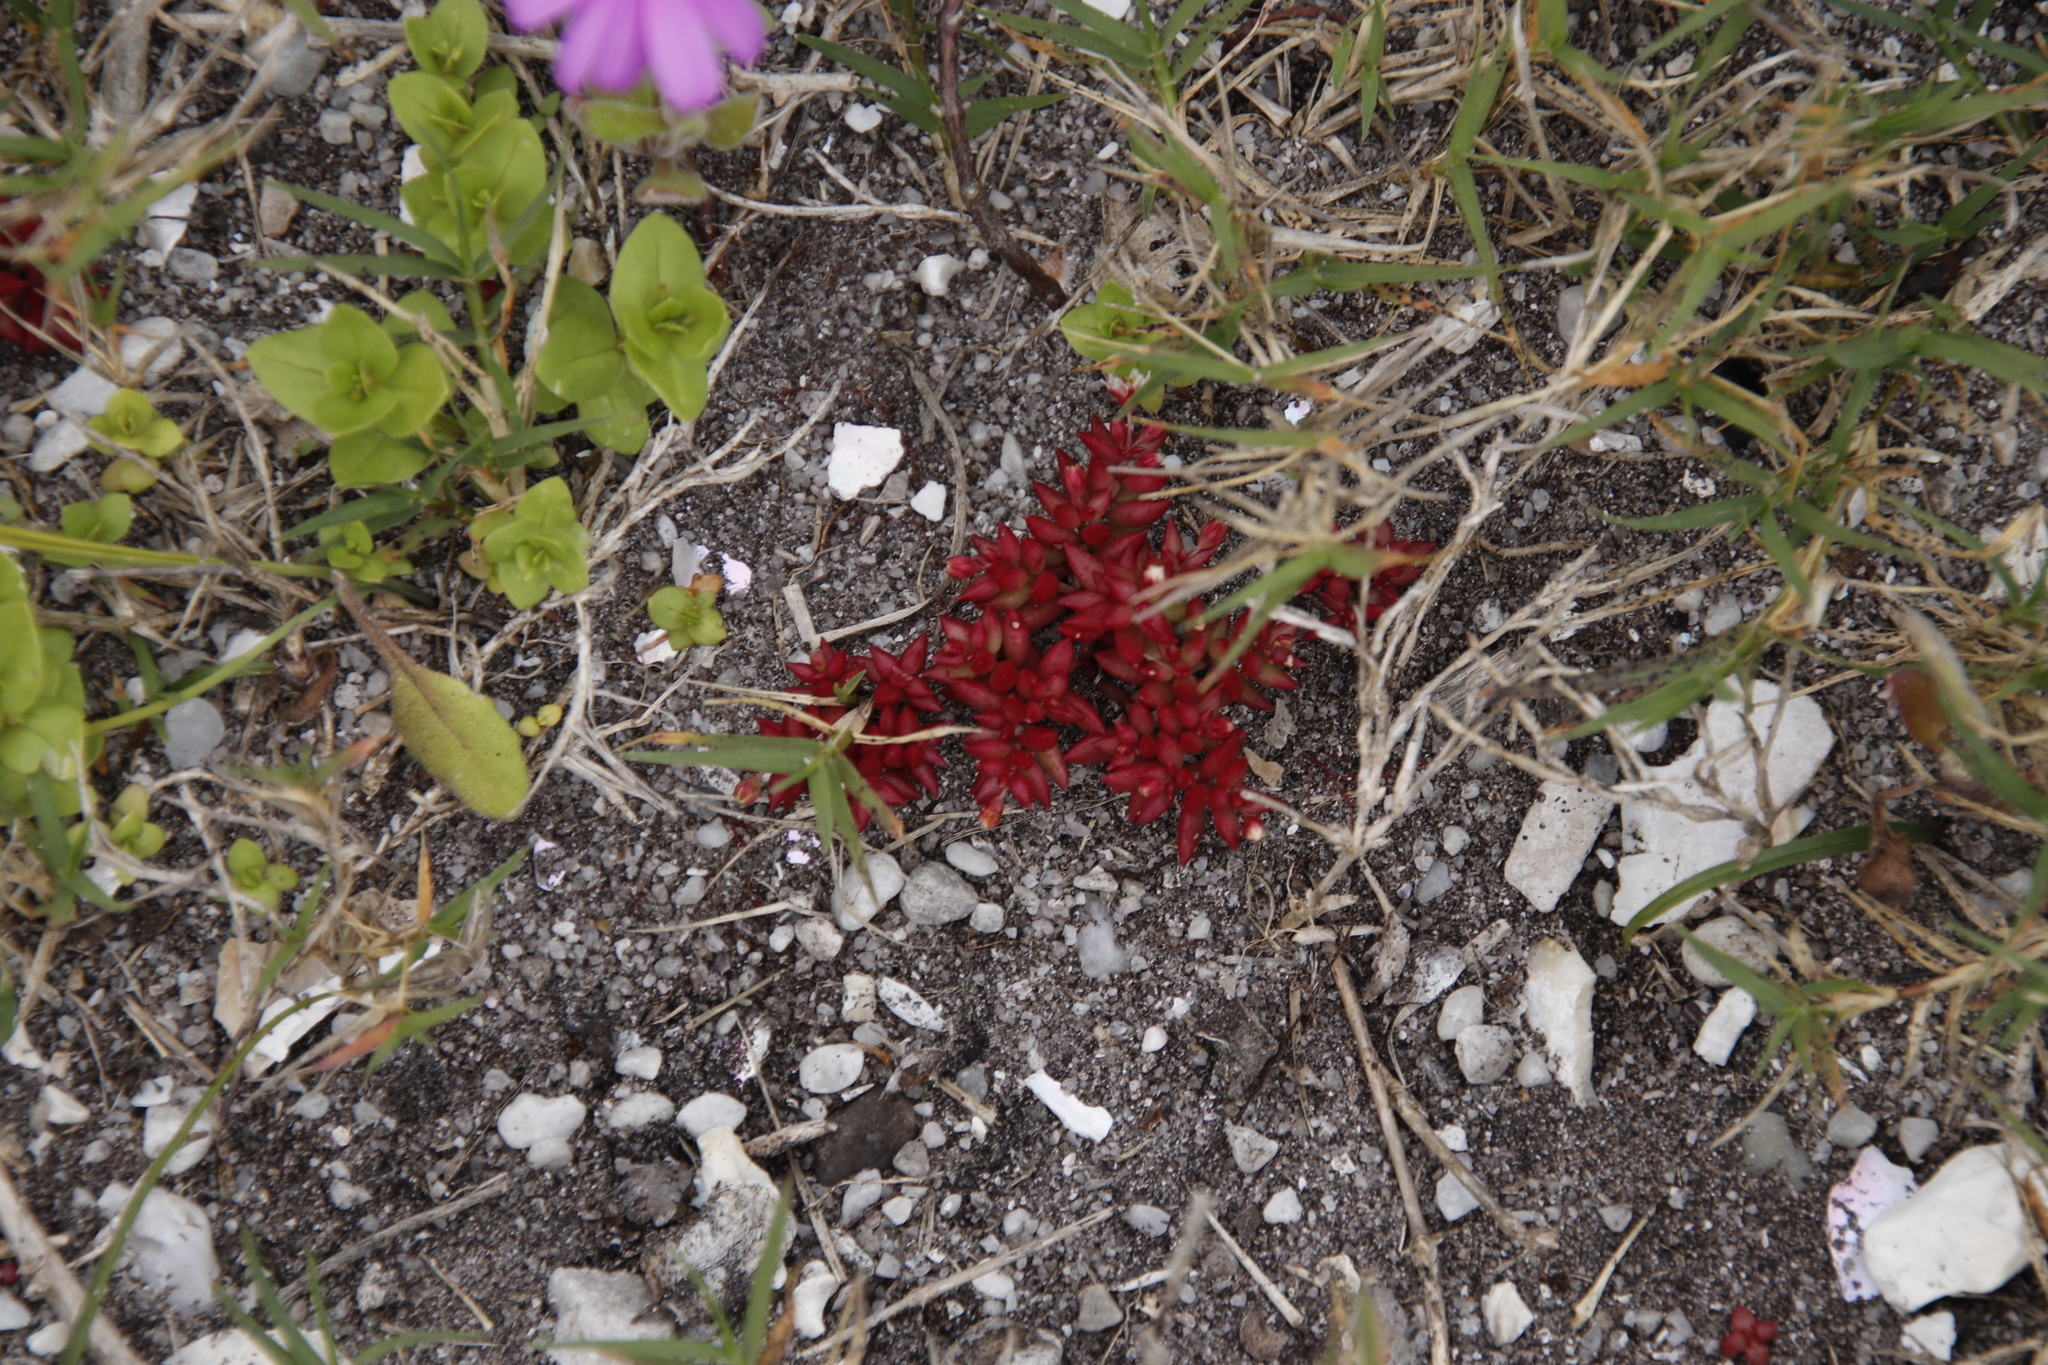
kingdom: Plantae
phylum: Tracheophyta
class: Magnoliopsida
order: Saxifragales
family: Crassulaceae
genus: Crassula
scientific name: Crassula expansa
